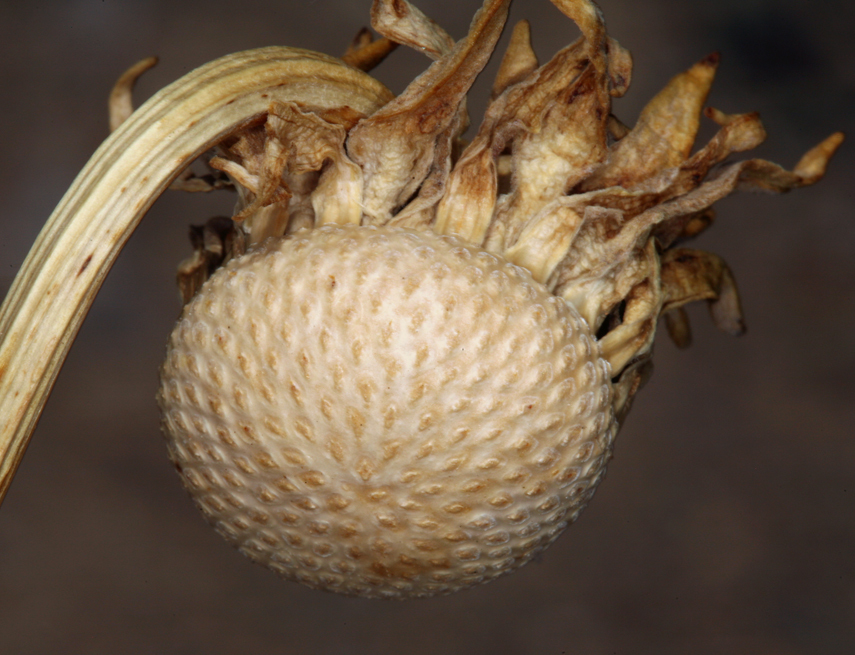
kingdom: Plantae
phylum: Tracheophyta
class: Magnoliopsida
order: Asterales
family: Asteraceae
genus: Enceliopsis
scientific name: Enceliopsis covillei
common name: Panamint daisy
